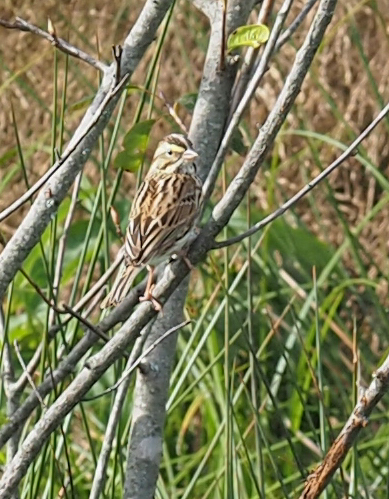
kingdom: Animalia
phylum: Chordata
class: Aves
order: Passeriformes
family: Passerellidae
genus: Passerculus
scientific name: Passerculus sandwichensis
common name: Savannah sparrow
